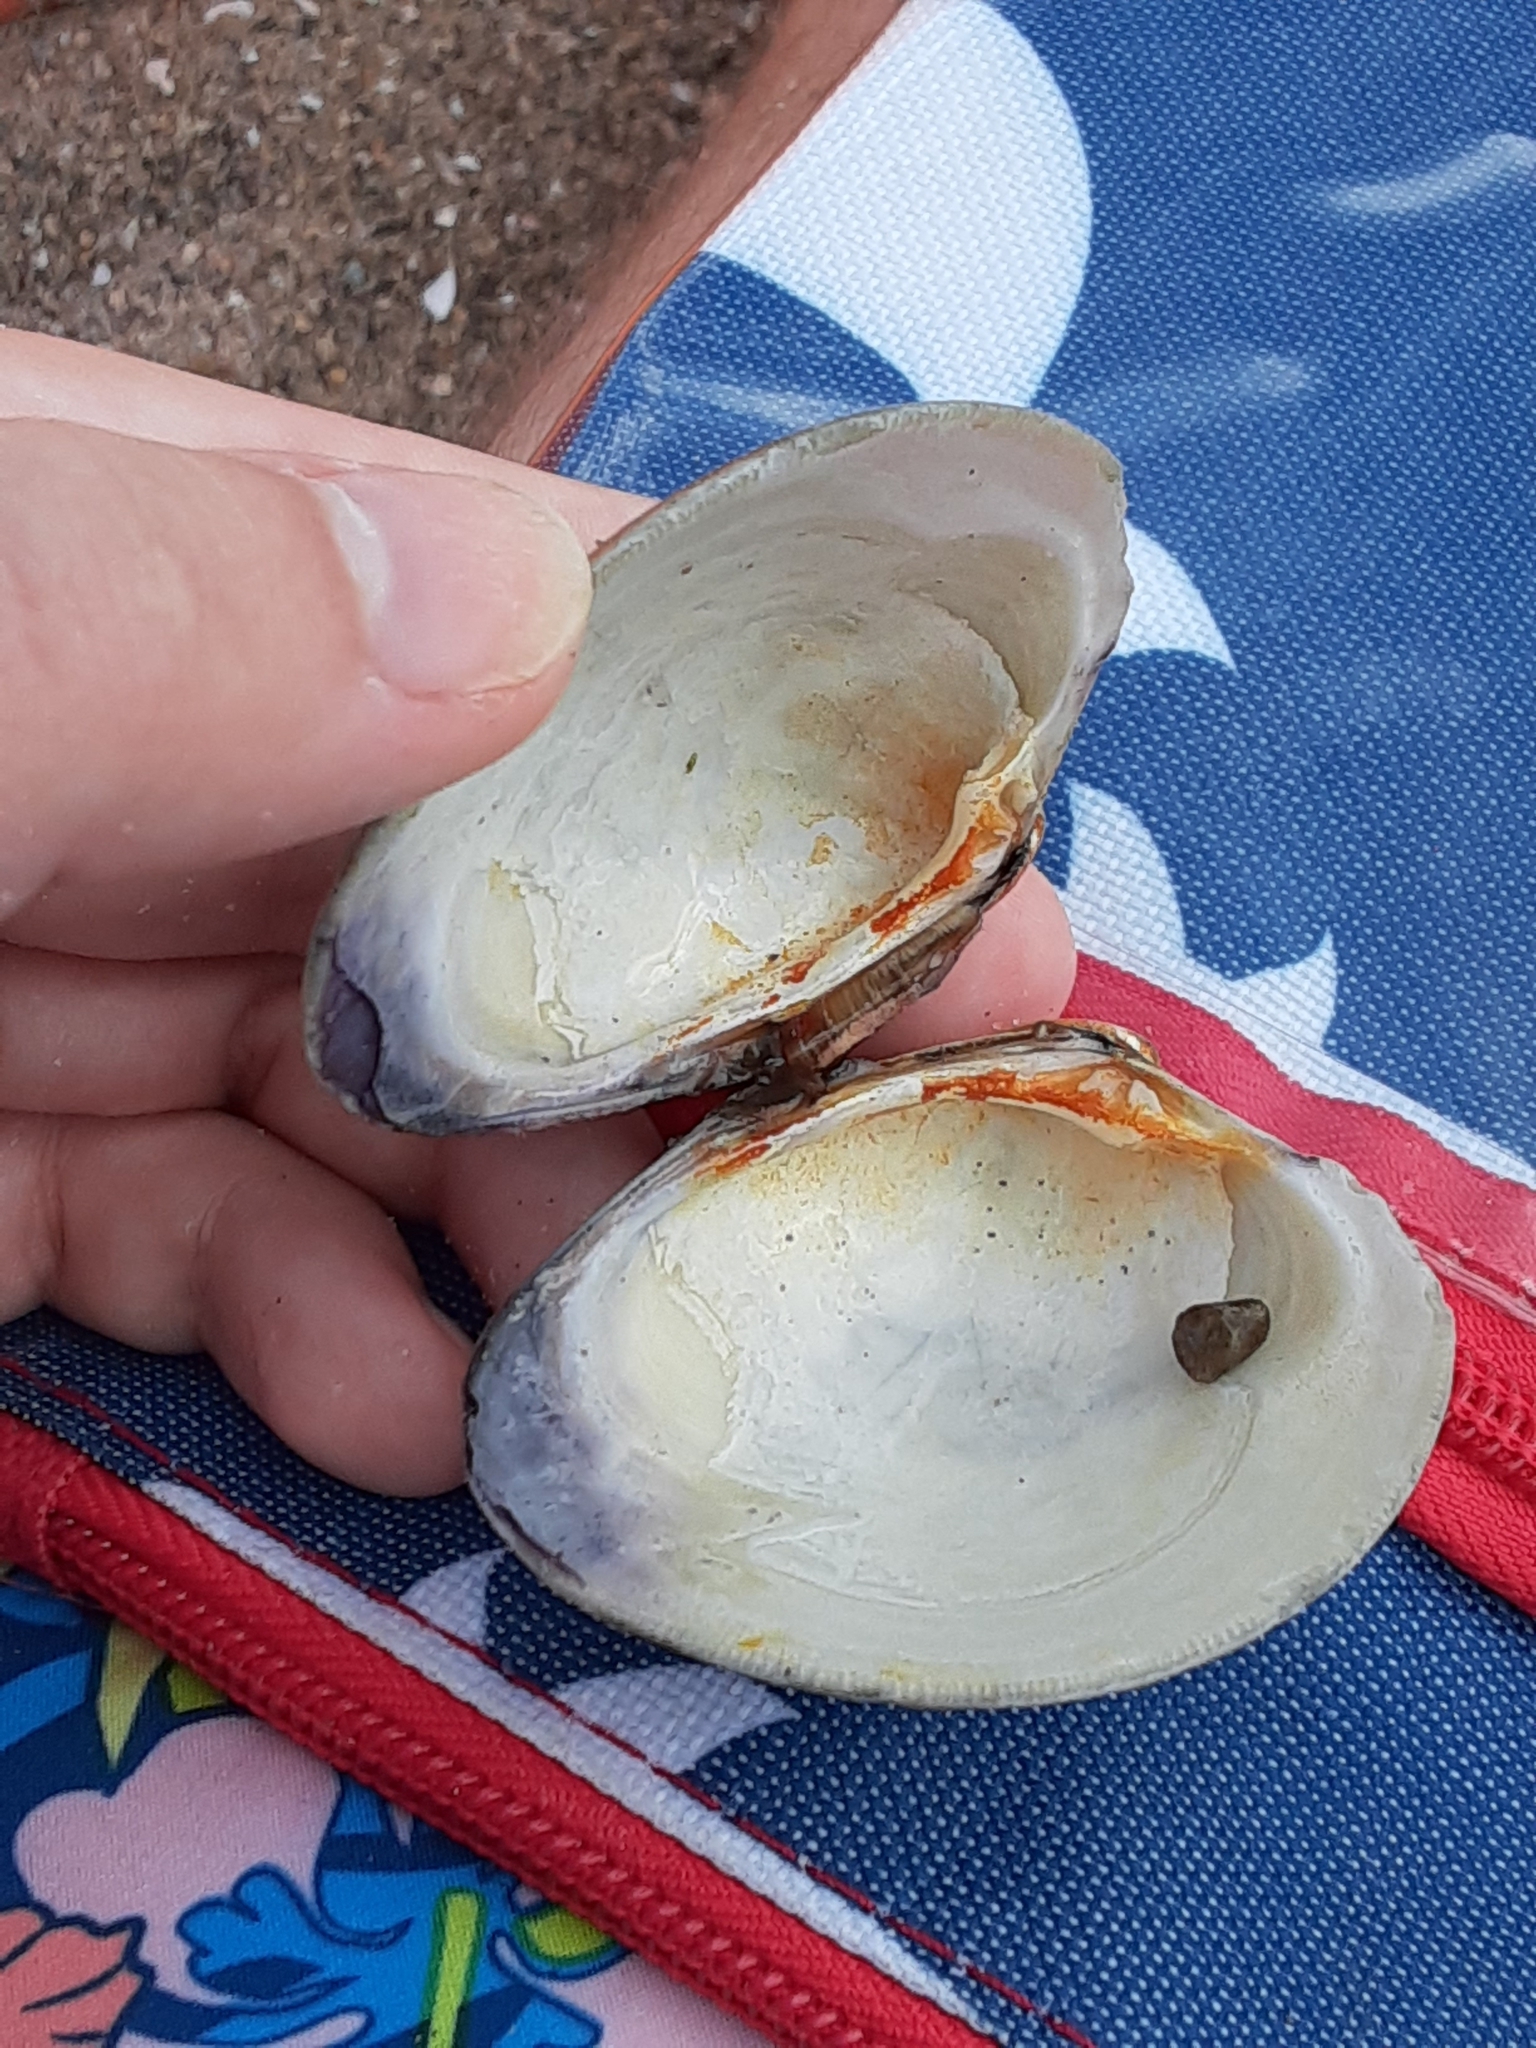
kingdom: Animalia
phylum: Mollusca
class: Bivalvia
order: Venerida
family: Veneridae
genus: Mercenaria
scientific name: Mercenaria mercenaria
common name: American hard-shelled clam
